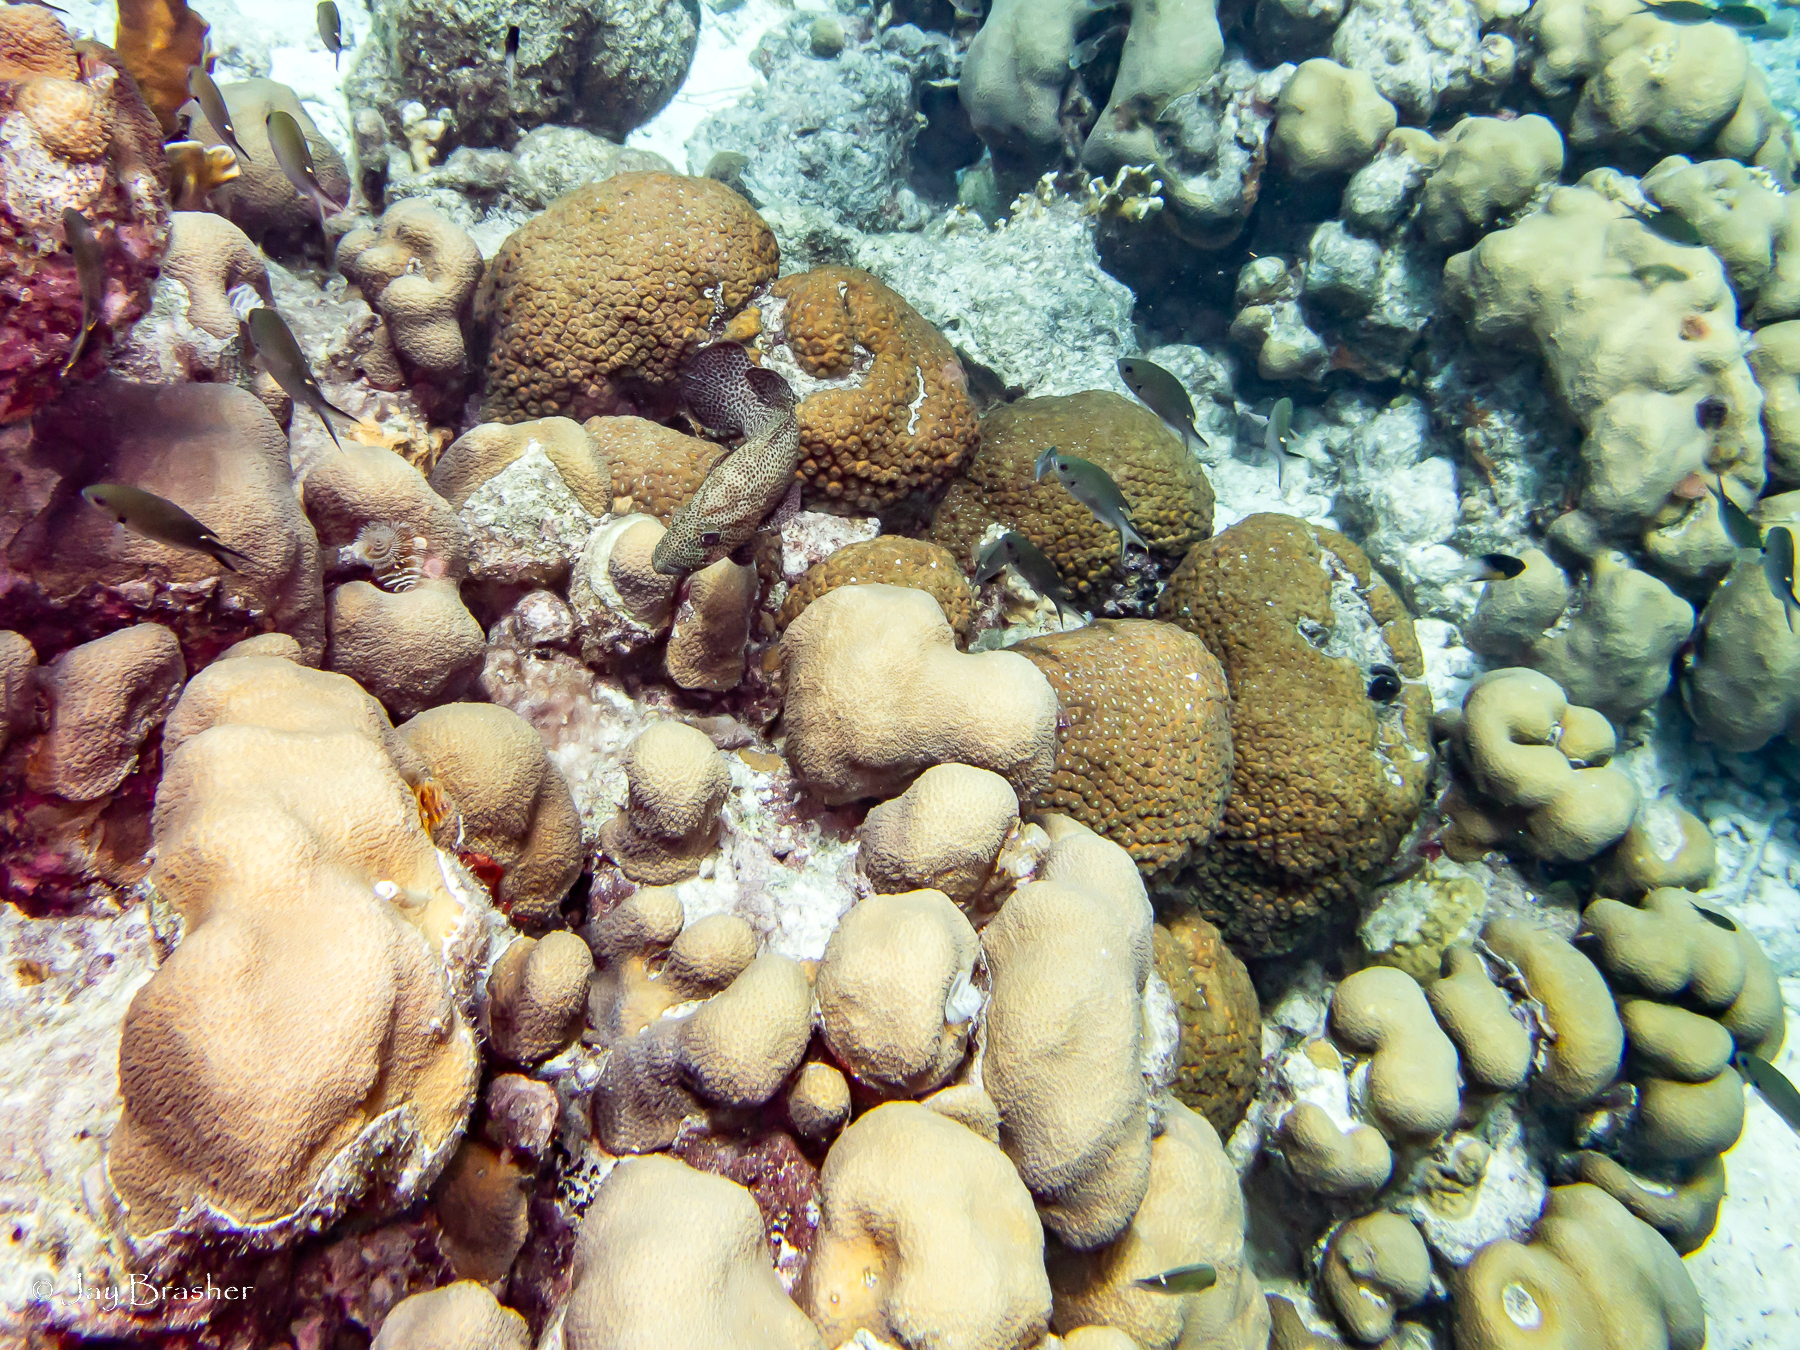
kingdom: Animalia
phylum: Cnidaria
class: Anthozoa
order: Scleractinia
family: Montastraeidae
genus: Montastraea
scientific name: Montastraea cavernosa
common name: Great star coral
